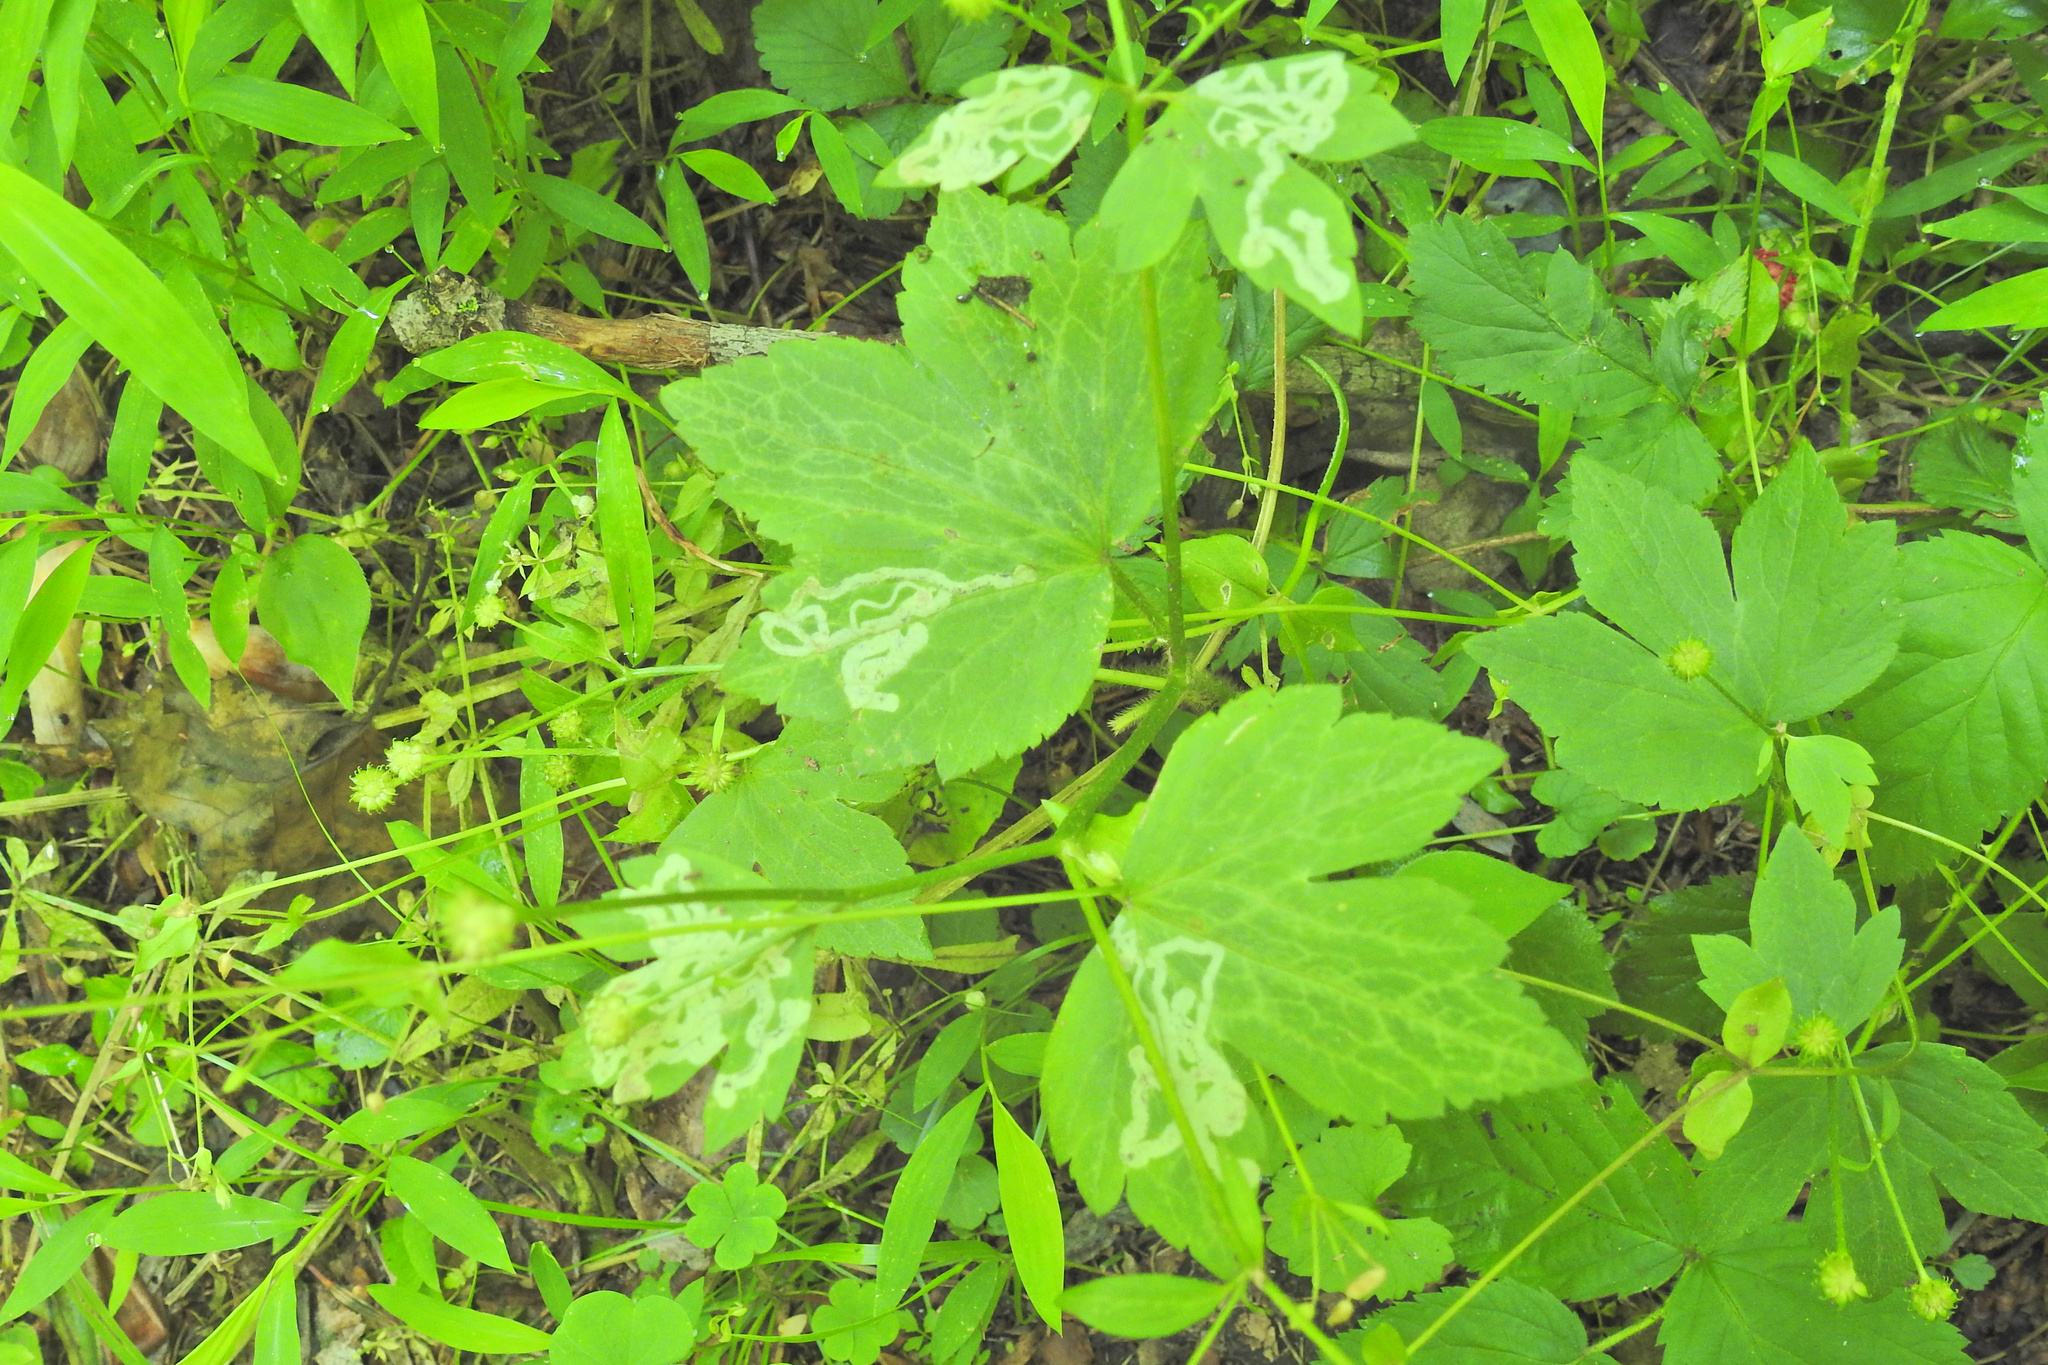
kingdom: Animalia
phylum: Arthropoda
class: Insecta
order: Diptera
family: Agromyzidae
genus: Phytomyza
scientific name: Phytomyza ranunculi
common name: Leaf-miner fly
